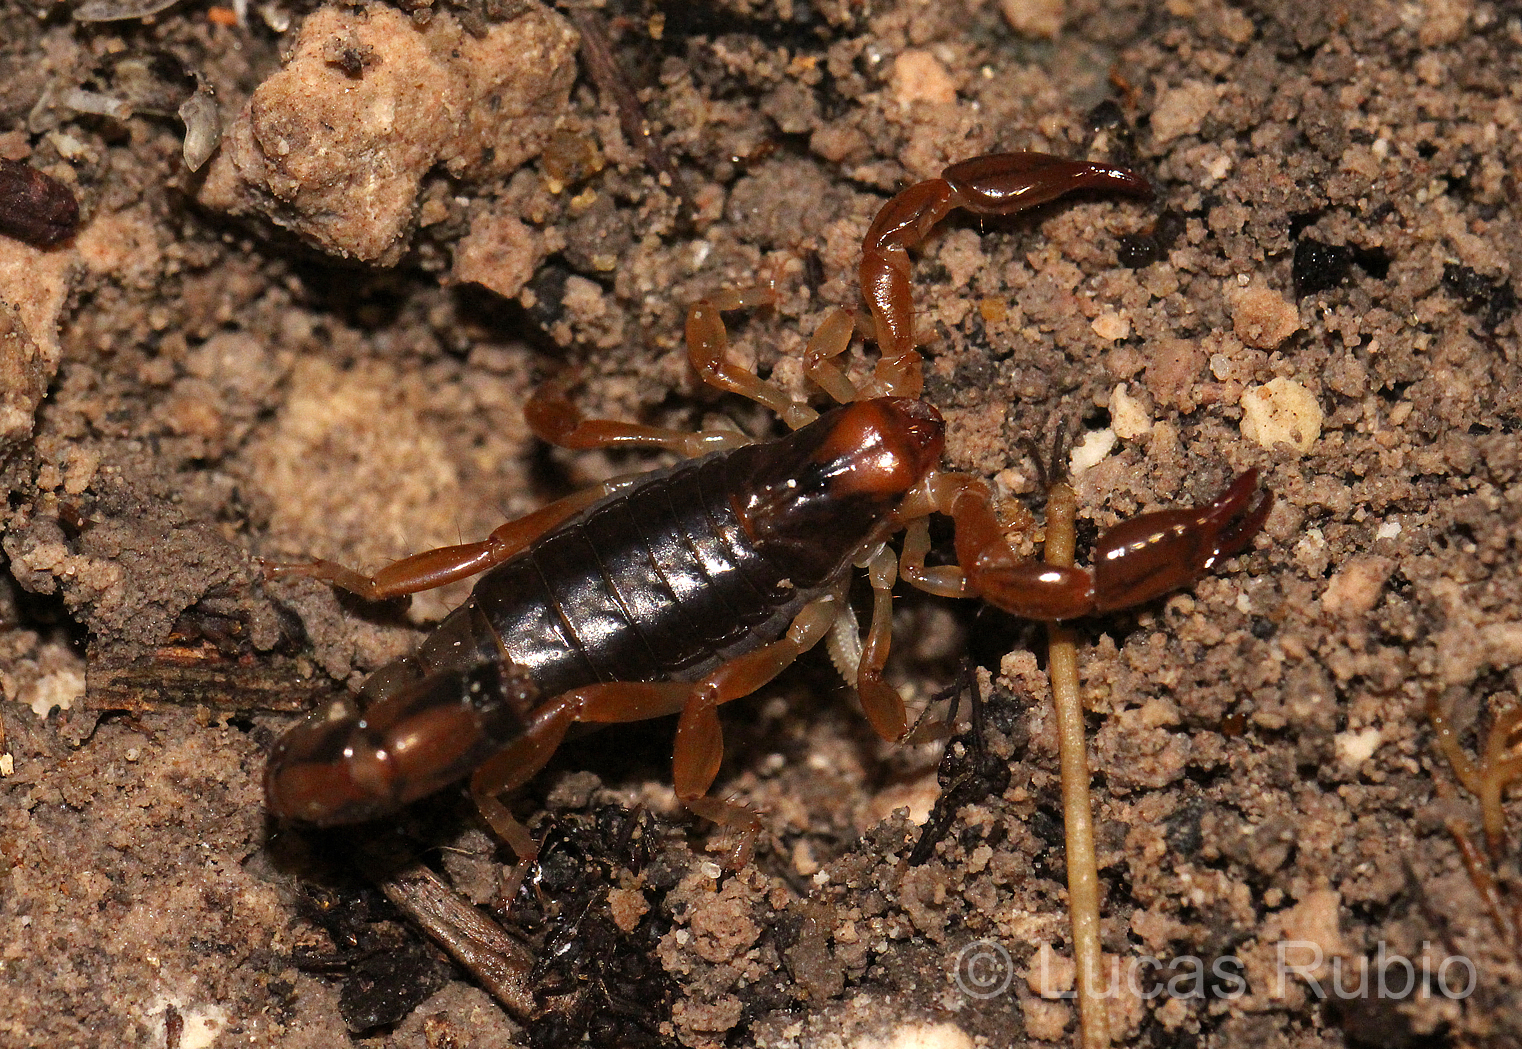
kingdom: Animalia
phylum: Arthropoda
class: Arachnida
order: Scorpiones
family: Bothriuridae
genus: Bothriurus
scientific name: Bothriurus bonariensis
